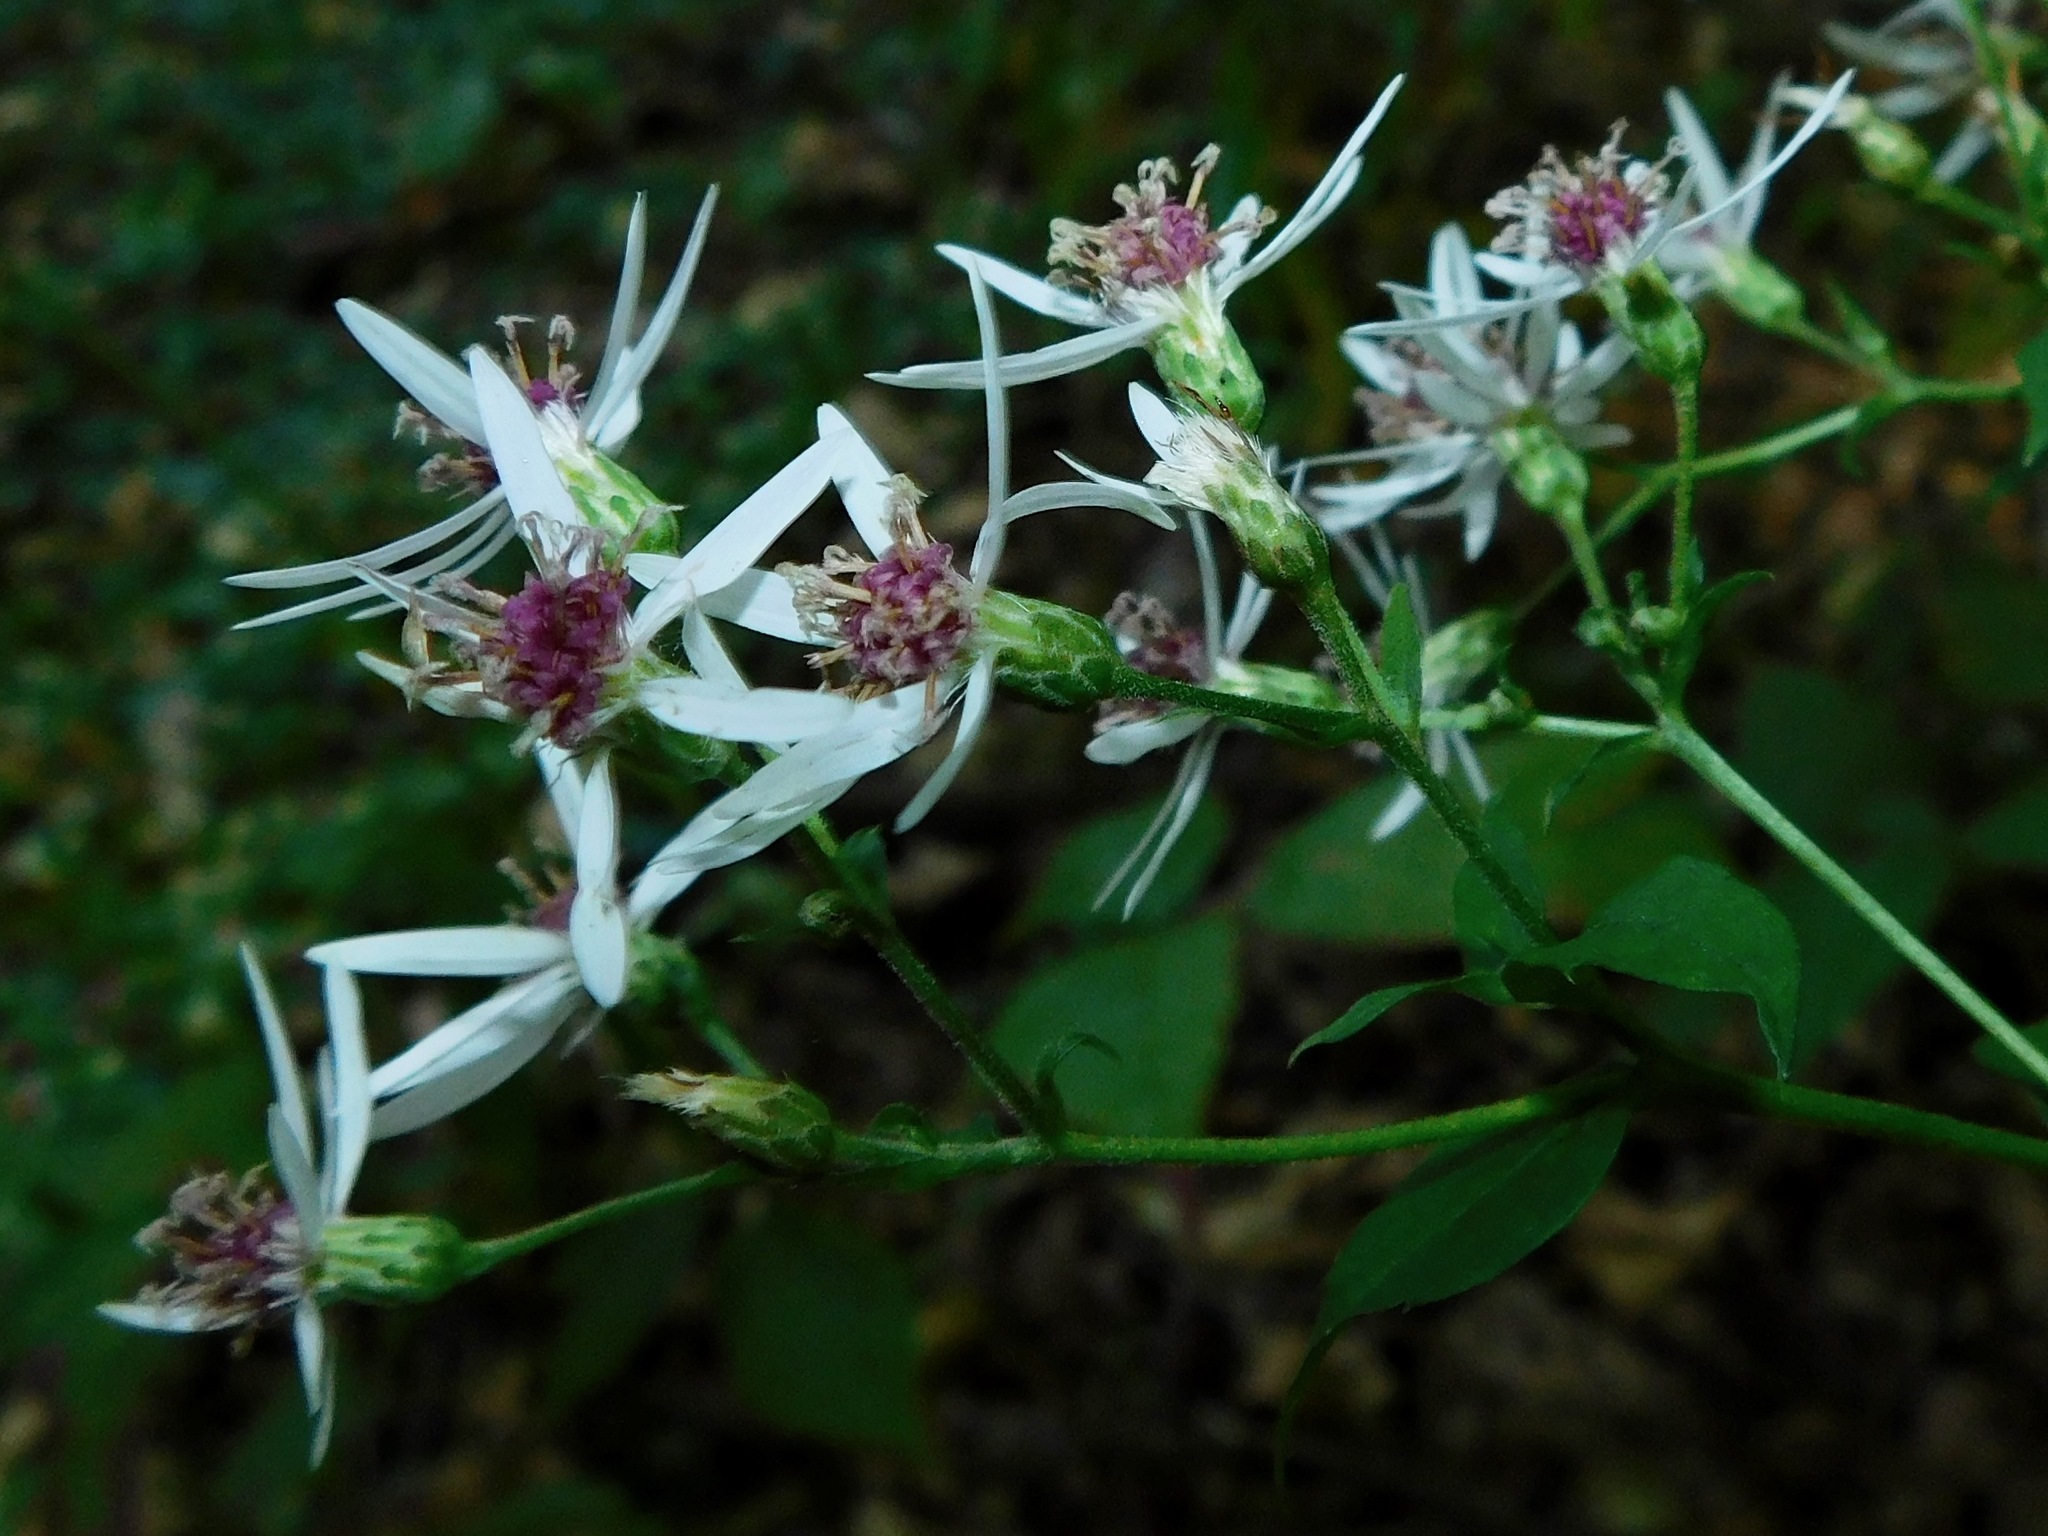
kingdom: Plantae
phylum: Tracheophyta
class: Magnoliopsida
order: Asterales
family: Asteraceae
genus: Eurybia
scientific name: Eurybia divaricata
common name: White wood aster
